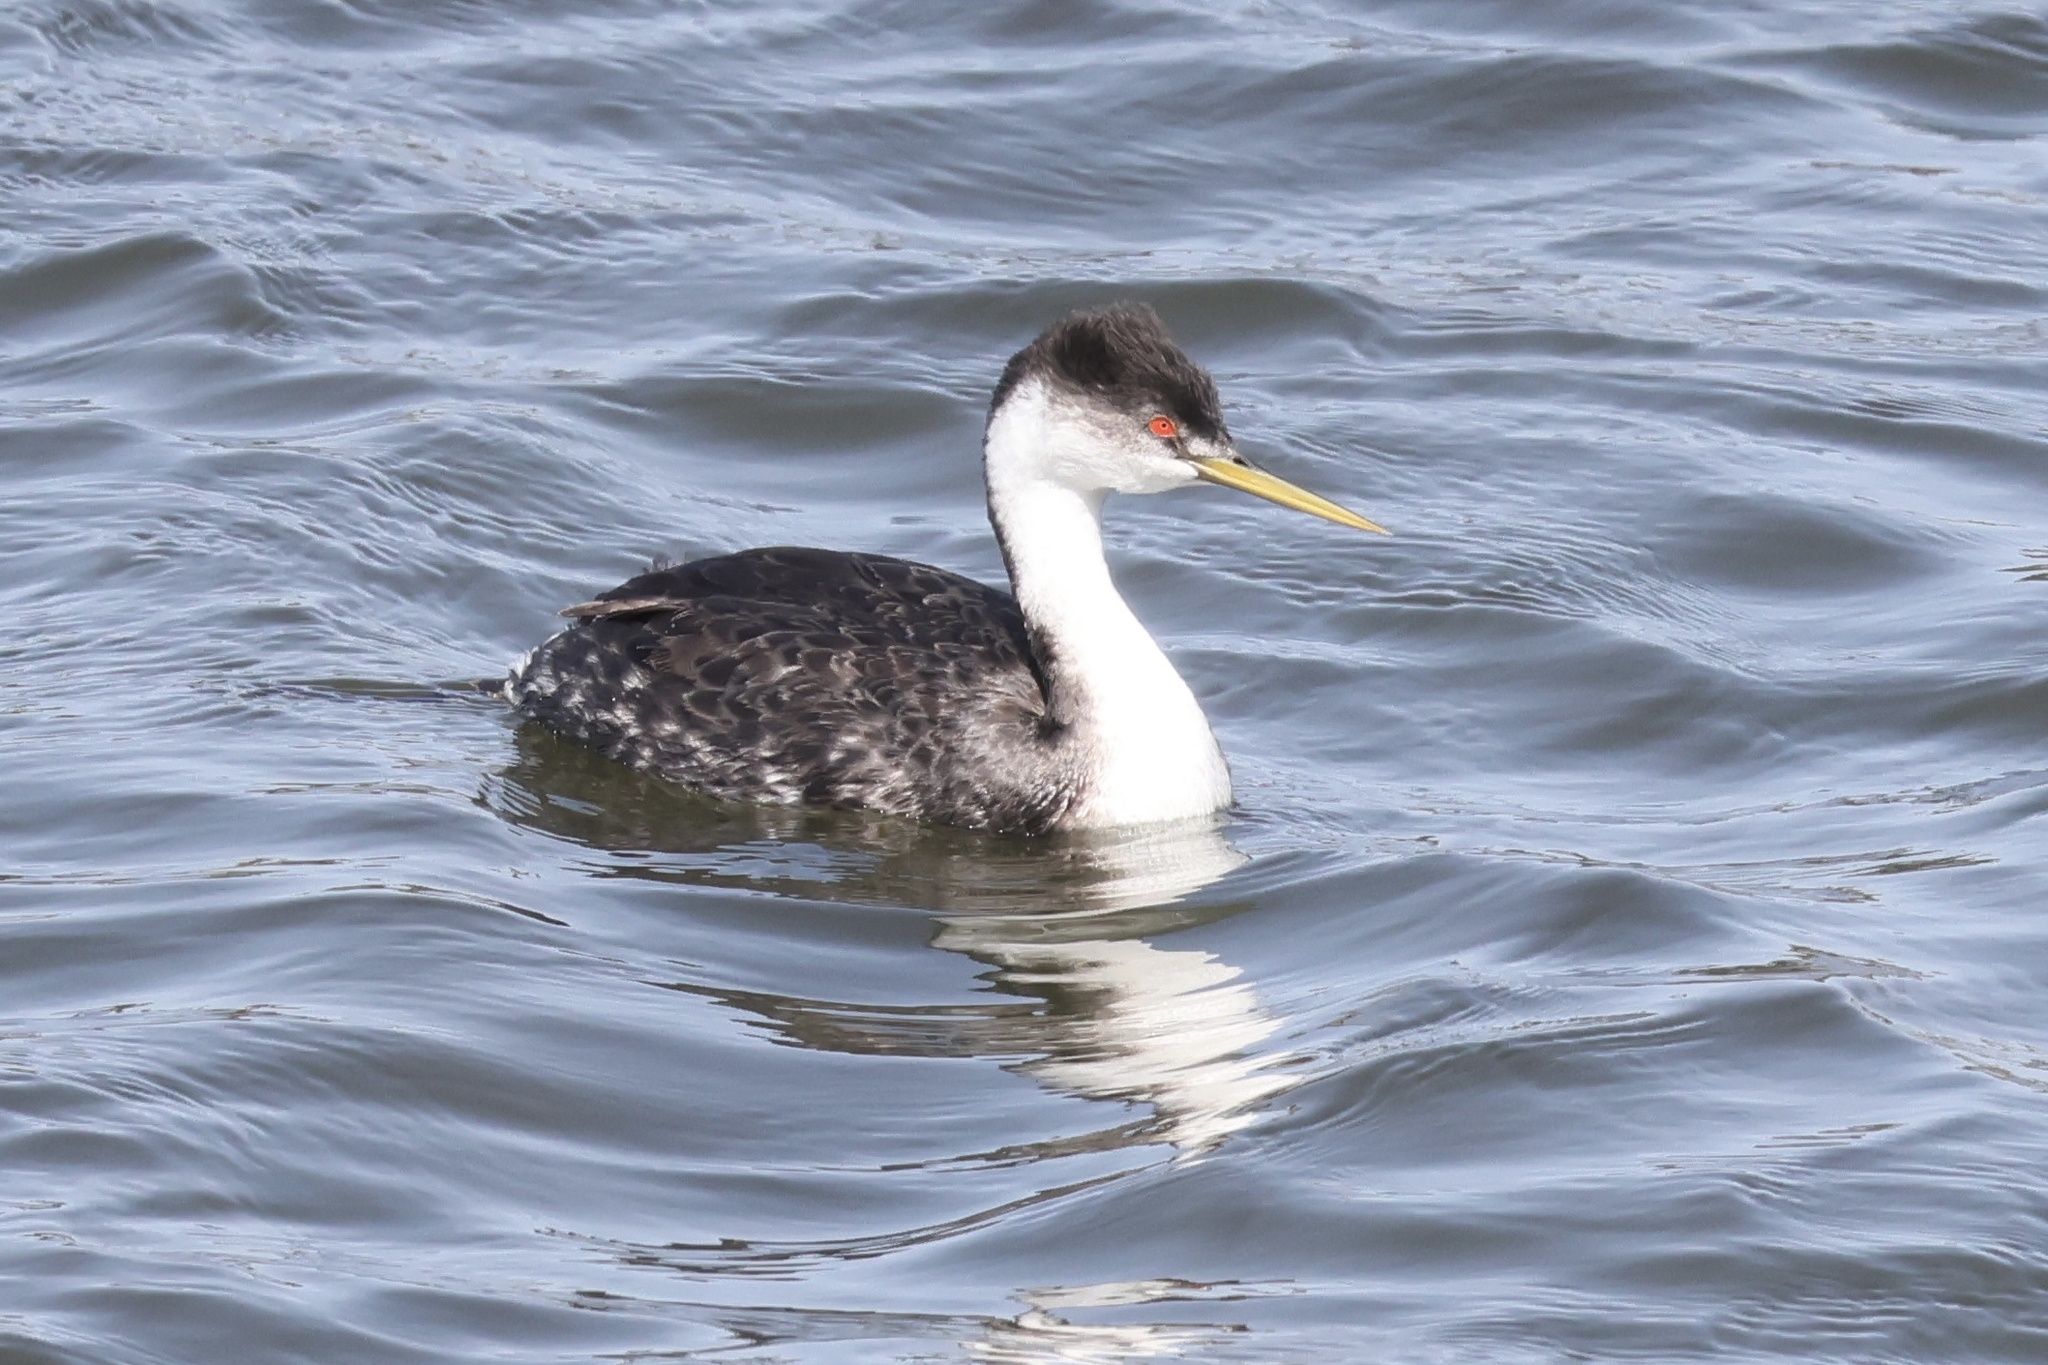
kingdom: Animalia
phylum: Chordata
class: Aves
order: Podicipediformes
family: Podicipedidae
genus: Aechmophorus
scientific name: Aechmophorus occidentalis
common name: Western grebe
